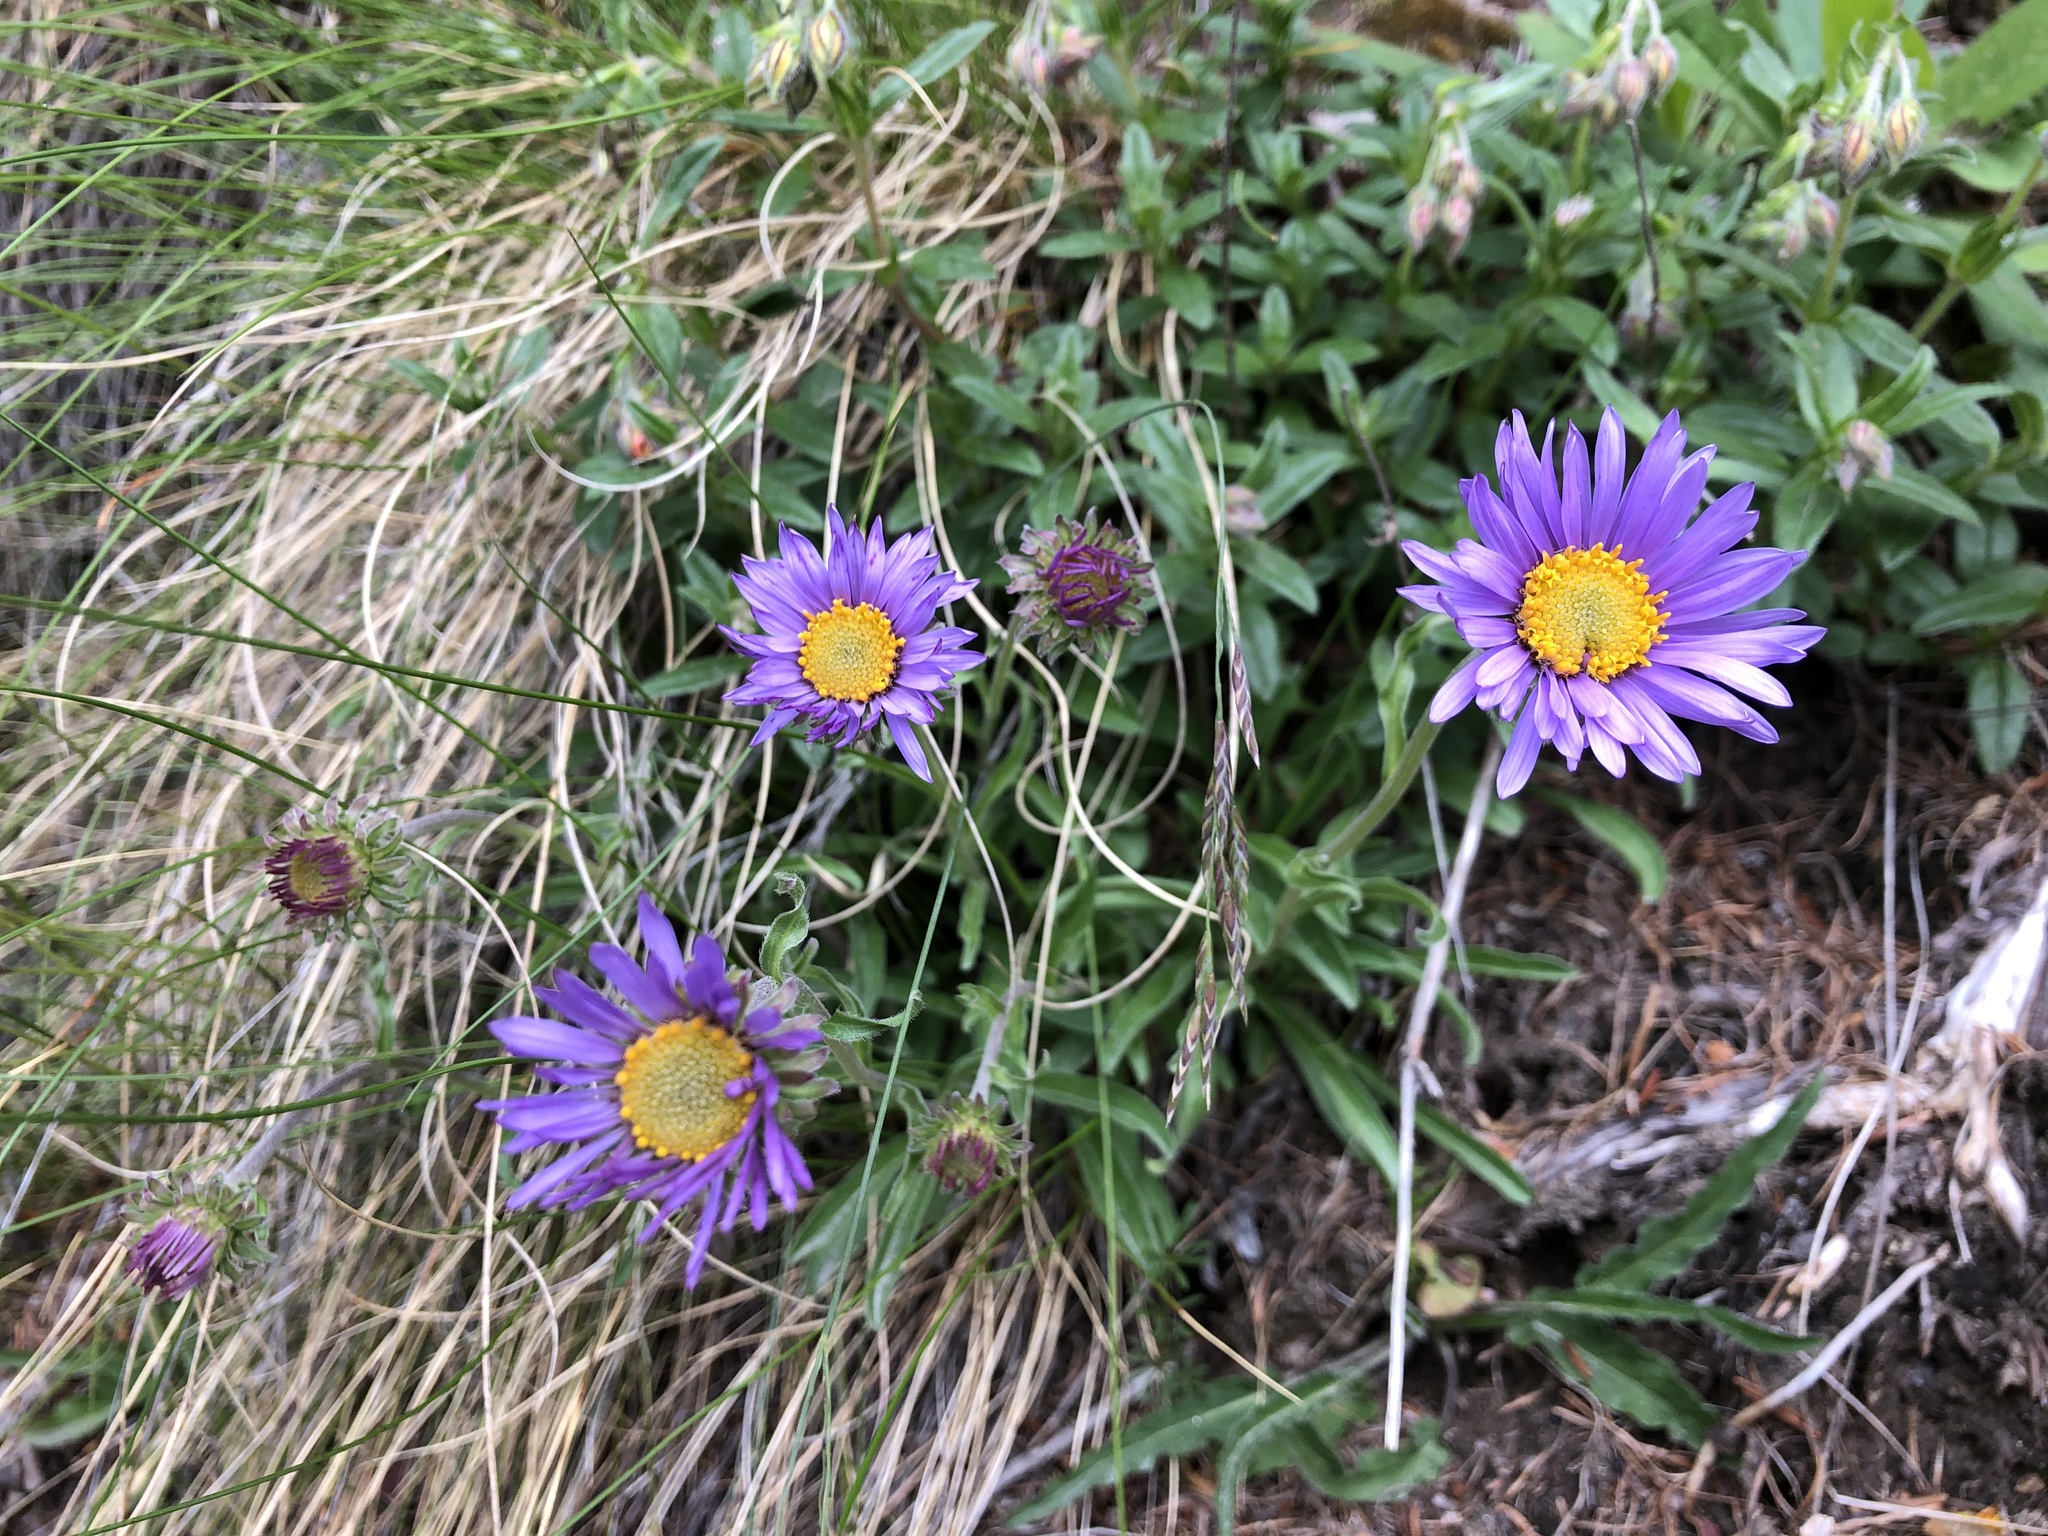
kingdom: Plantae
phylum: Tracheophyta
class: Magnoliopsida
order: Asterales
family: Asteraceae
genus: Aster
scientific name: Aster alpinus
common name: Alpine aster
